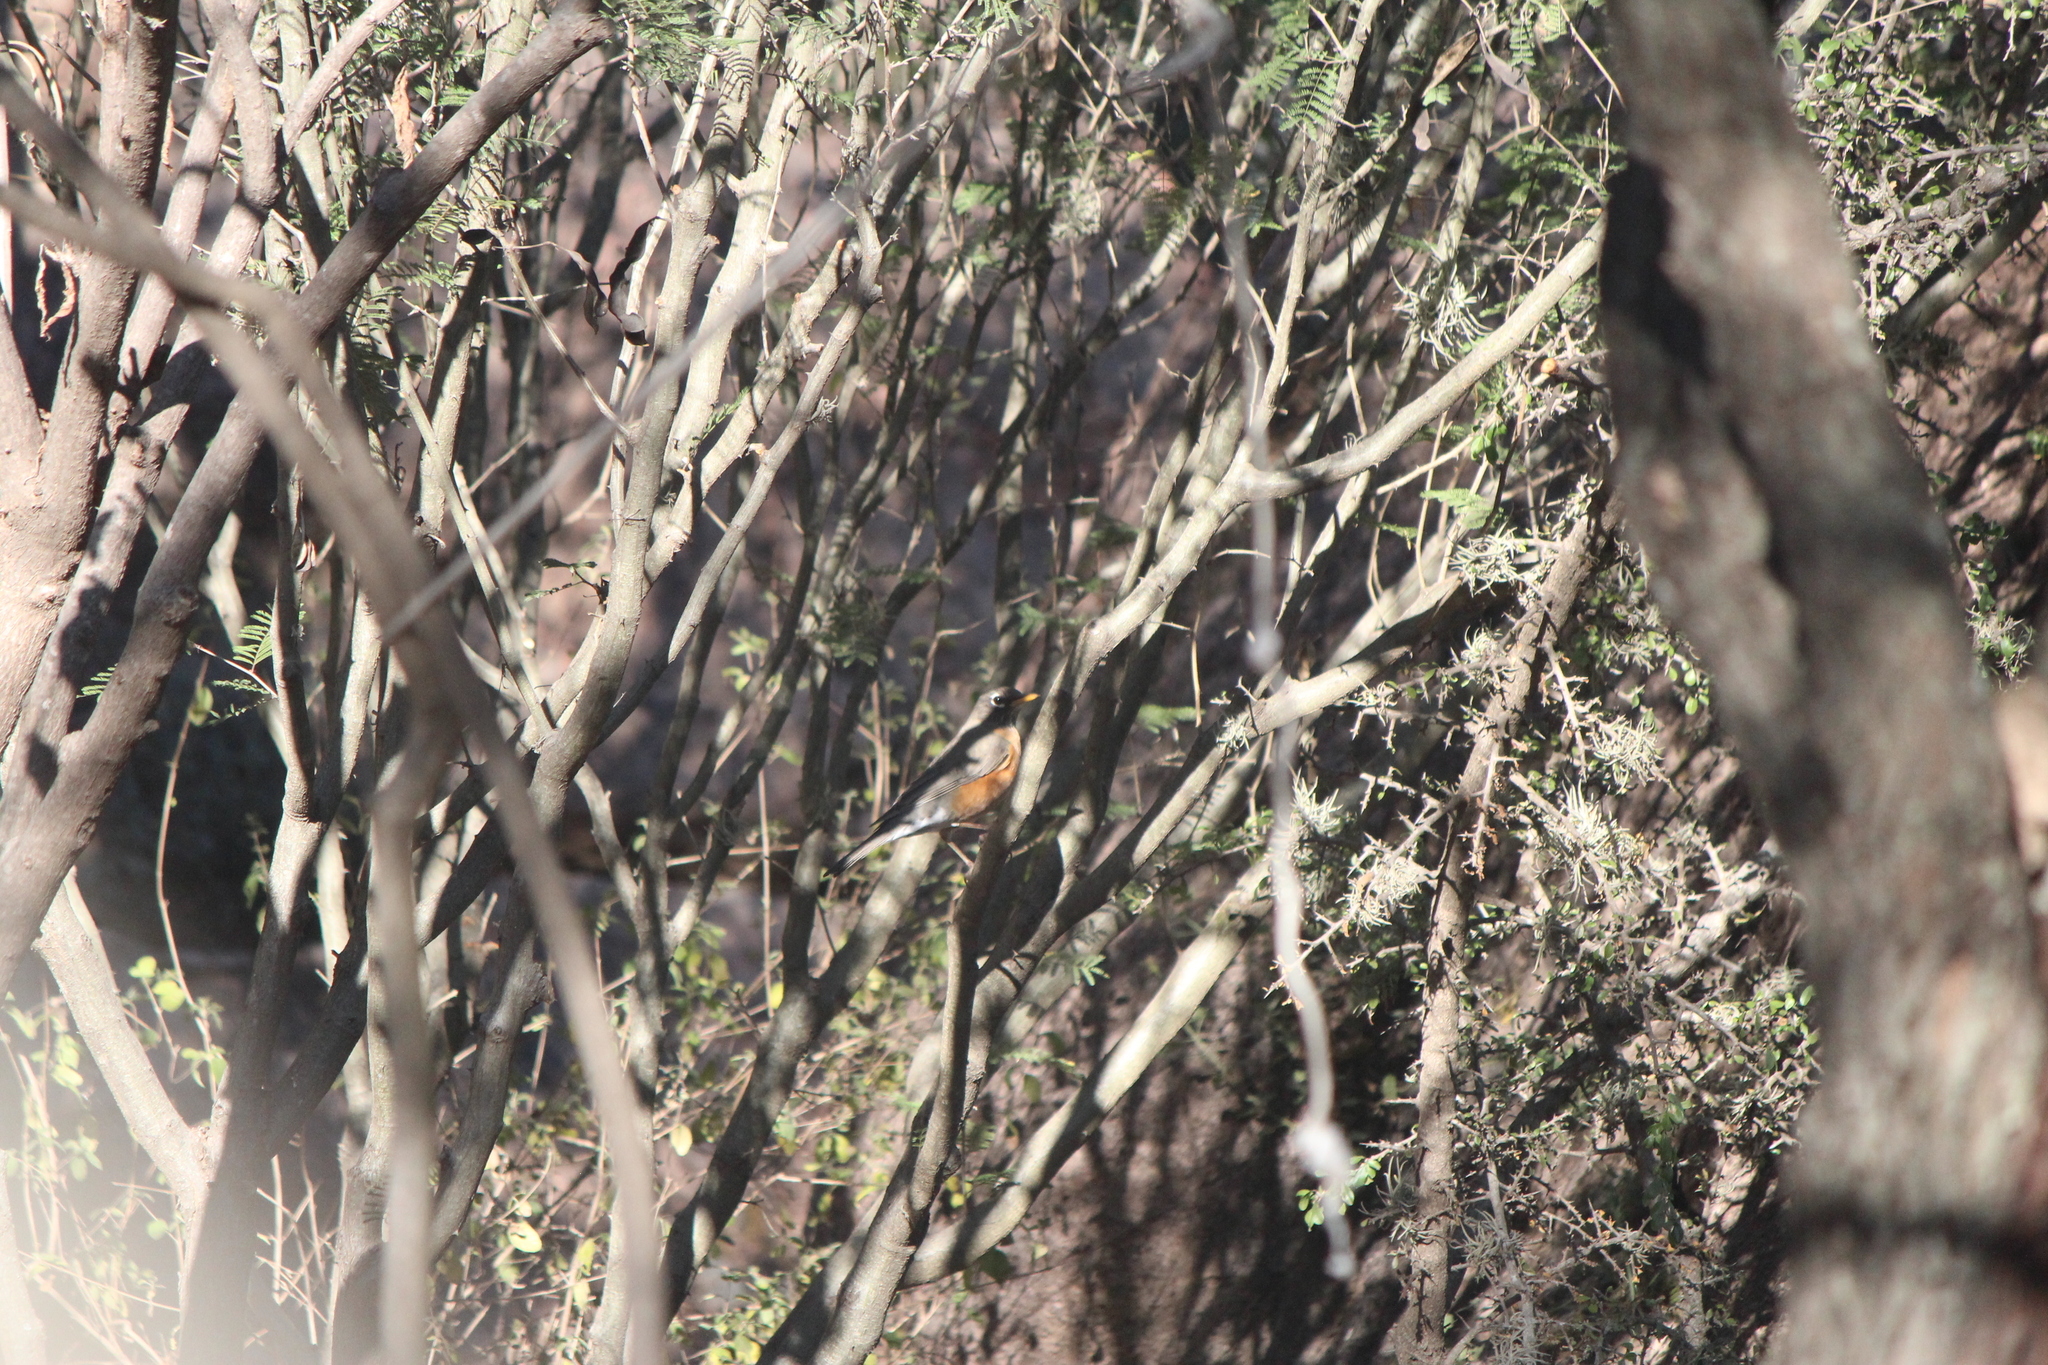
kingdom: Animalia
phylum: Chordata
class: Aves
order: Passeriformes
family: Turdidae
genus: Turdus
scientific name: Turdus migratorius
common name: American robin
